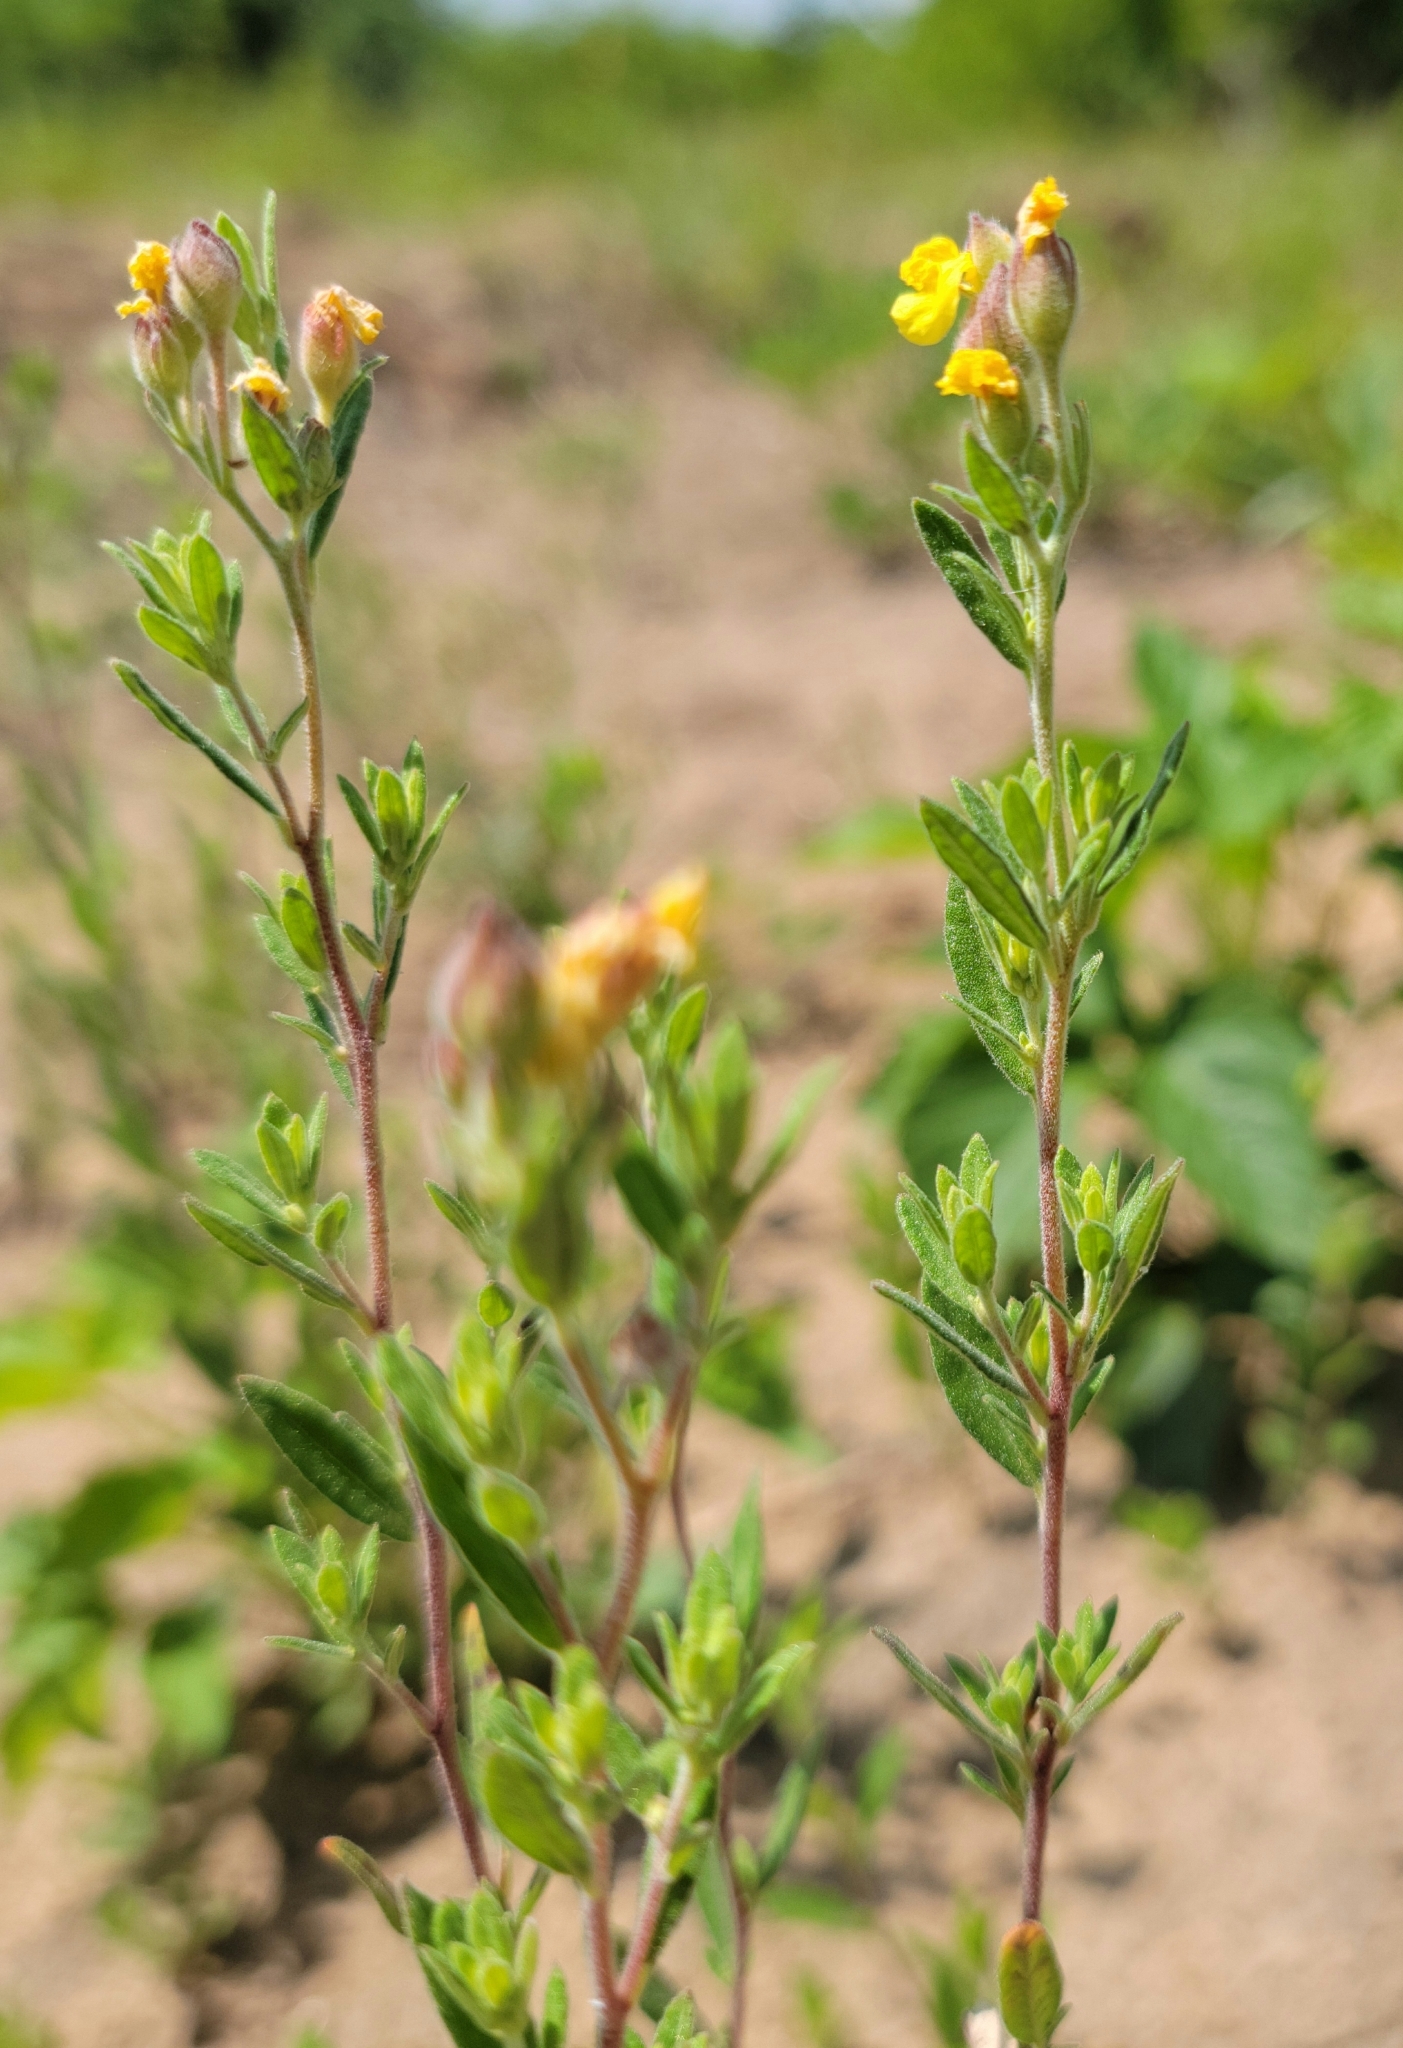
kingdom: Plantae
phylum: Tracheophyta
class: Magnoliopsida
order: Malvales
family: Cistaceae
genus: Crocanthemum
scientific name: Crocanthemum bicknellii
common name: Hoary frostweed
